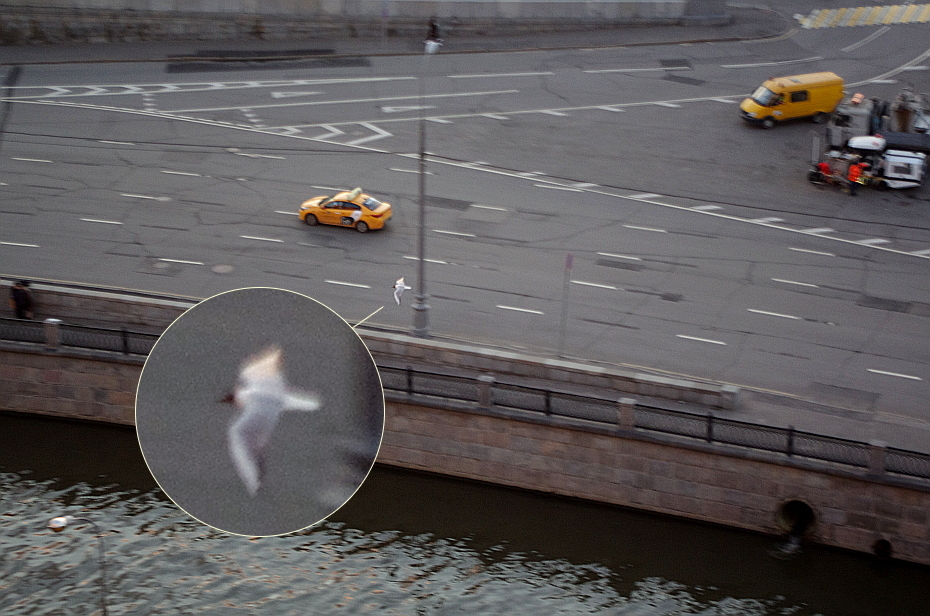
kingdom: Animalia
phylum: Chordata
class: Aves
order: Charadriiformes
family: Laridae
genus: Chroicocephalus
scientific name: Chroicocephalus ridibundus
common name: Black-headed gull
